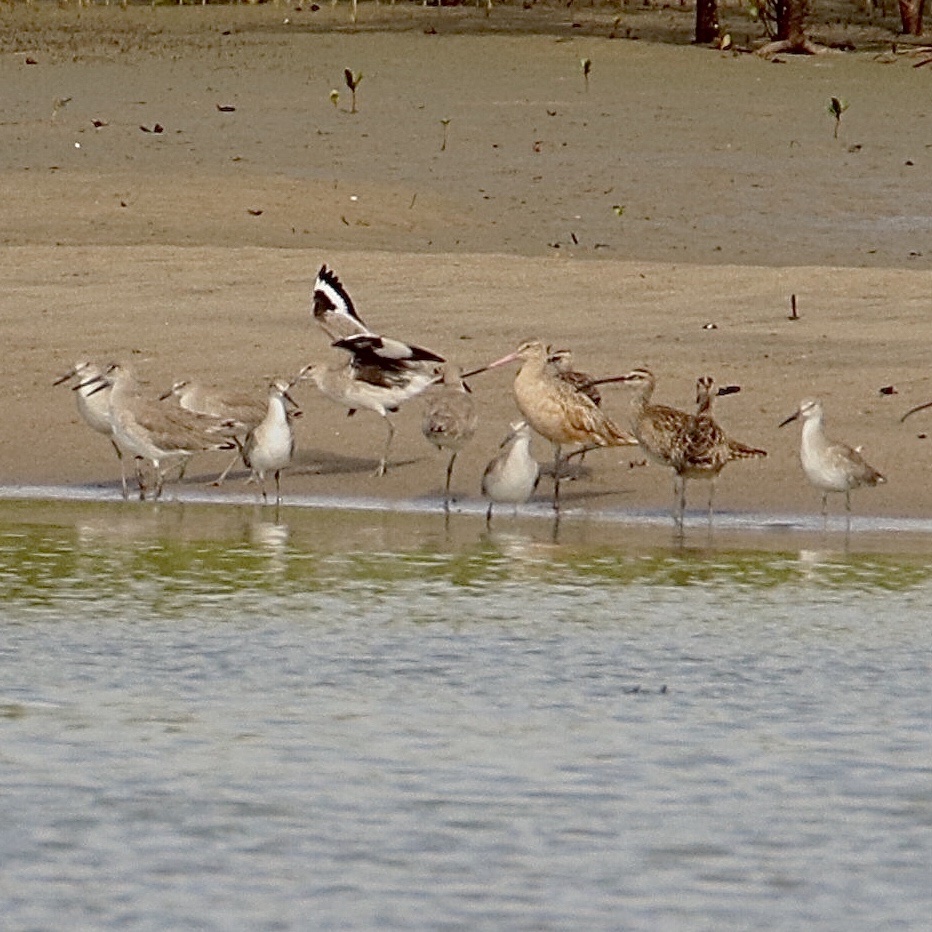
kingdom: Animalia
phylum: Chordata
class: Aves
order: Charadriiformes
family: Scolopacidae
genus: Limosa
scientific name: Limosa fedoa
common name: Marbled godwit
